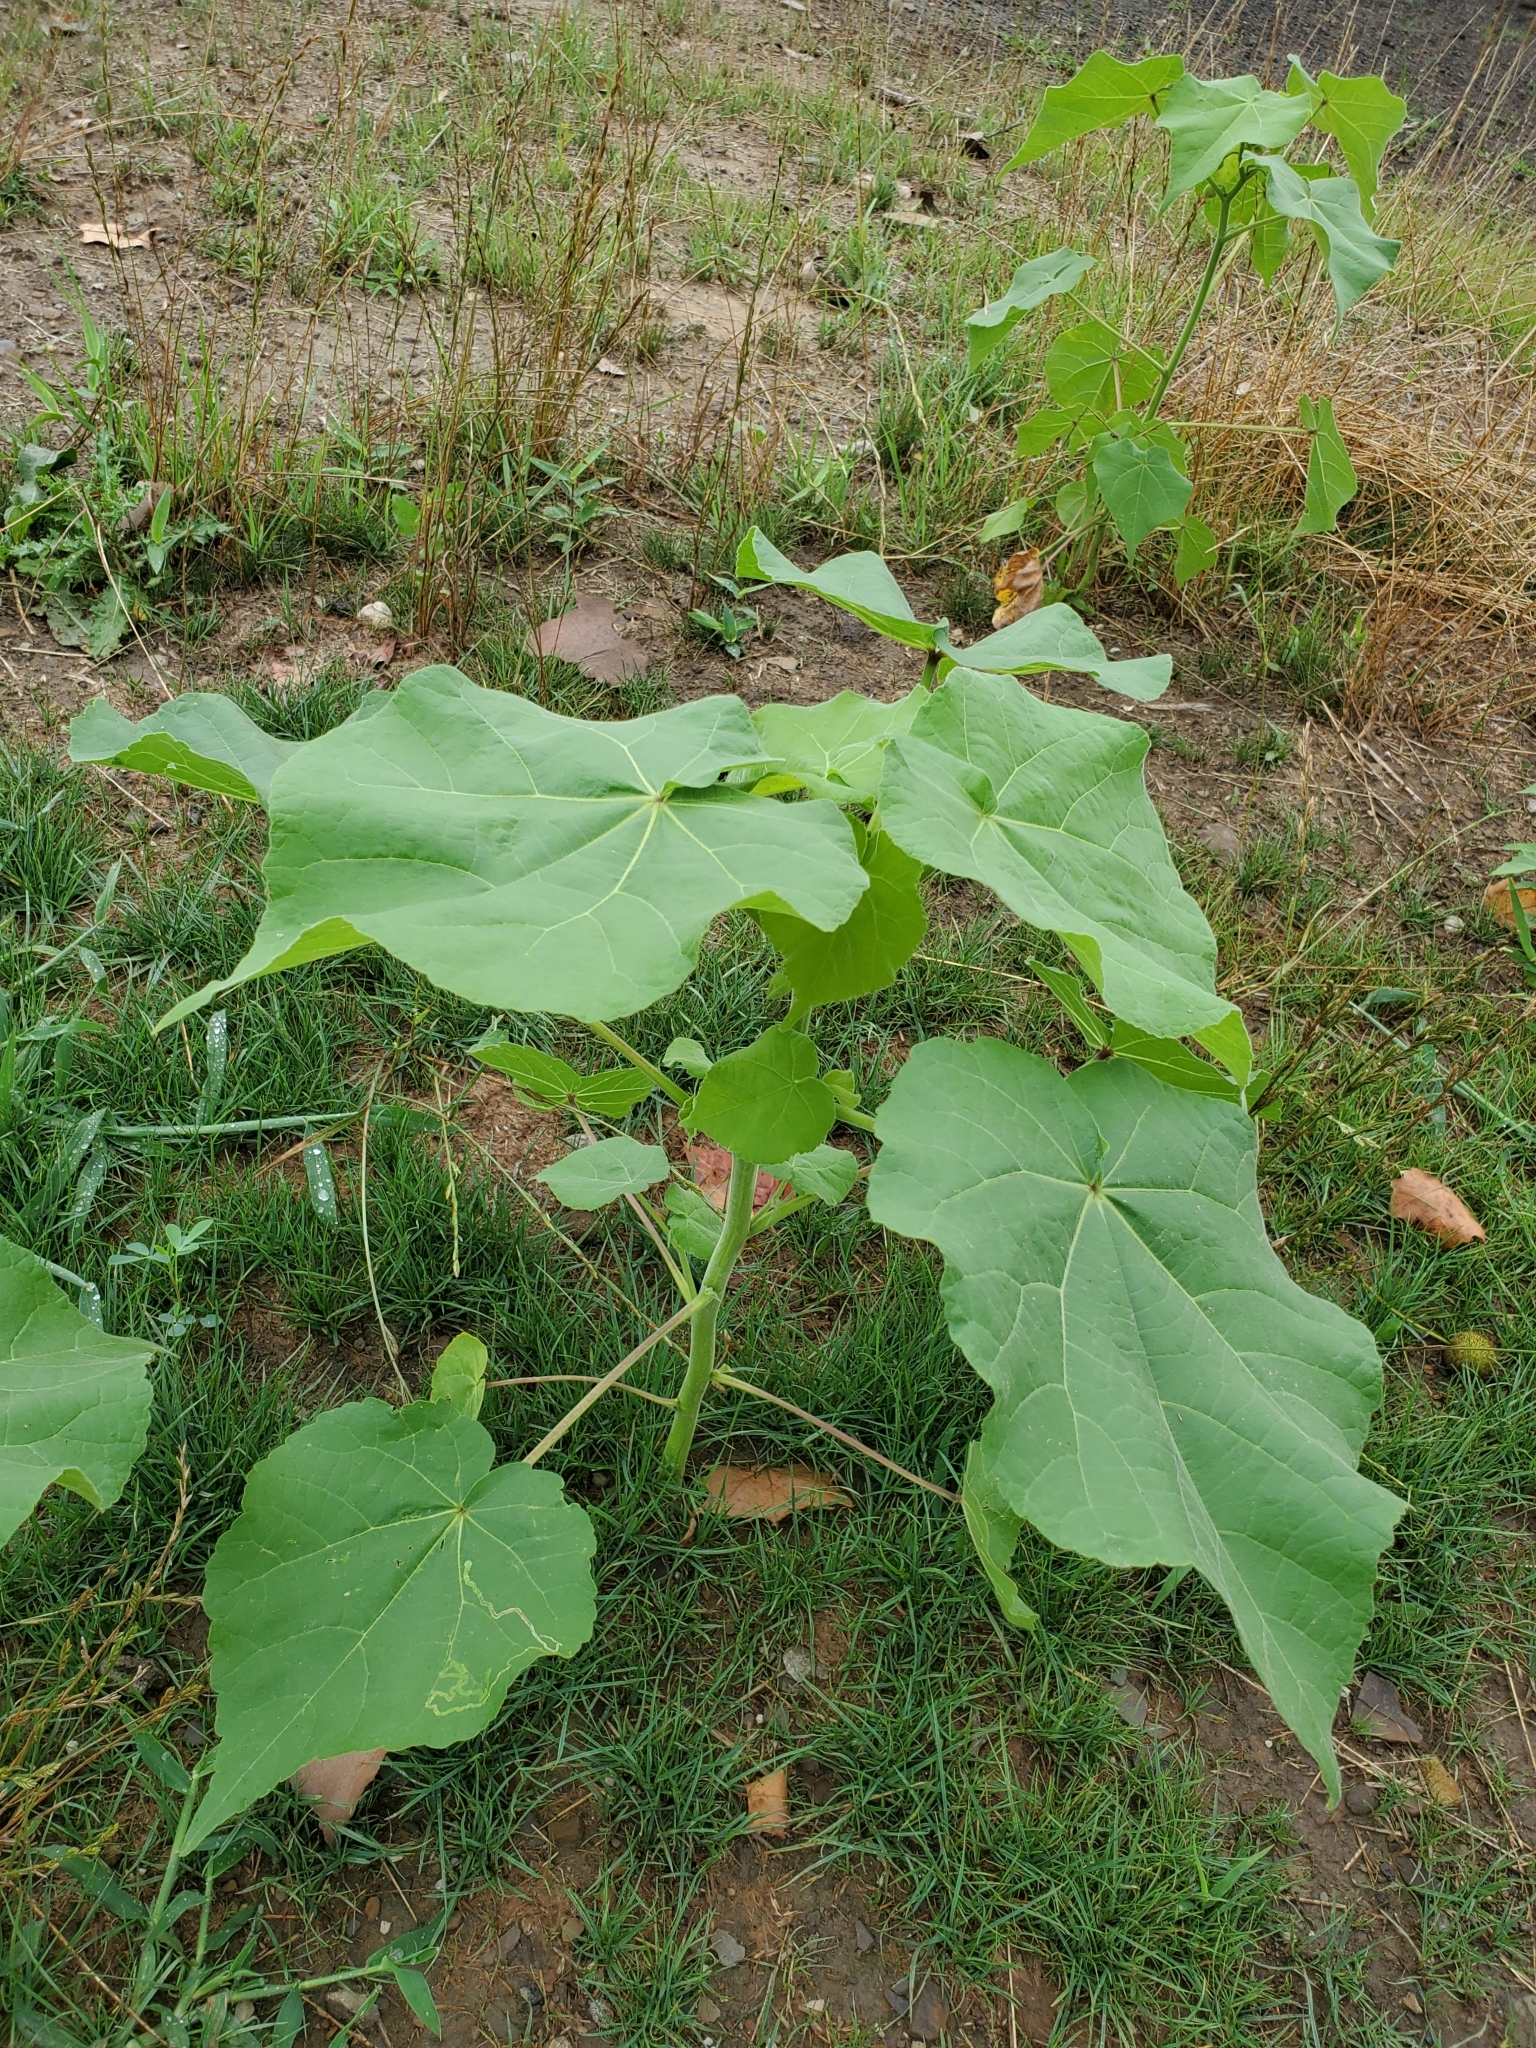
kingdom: Plantae
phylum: Tracheophyta
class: Magnoliopsida
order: Malvales
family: Malvaceae
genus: Abutilon
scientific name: Abutilon theophrasti
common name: Velvetleaf
